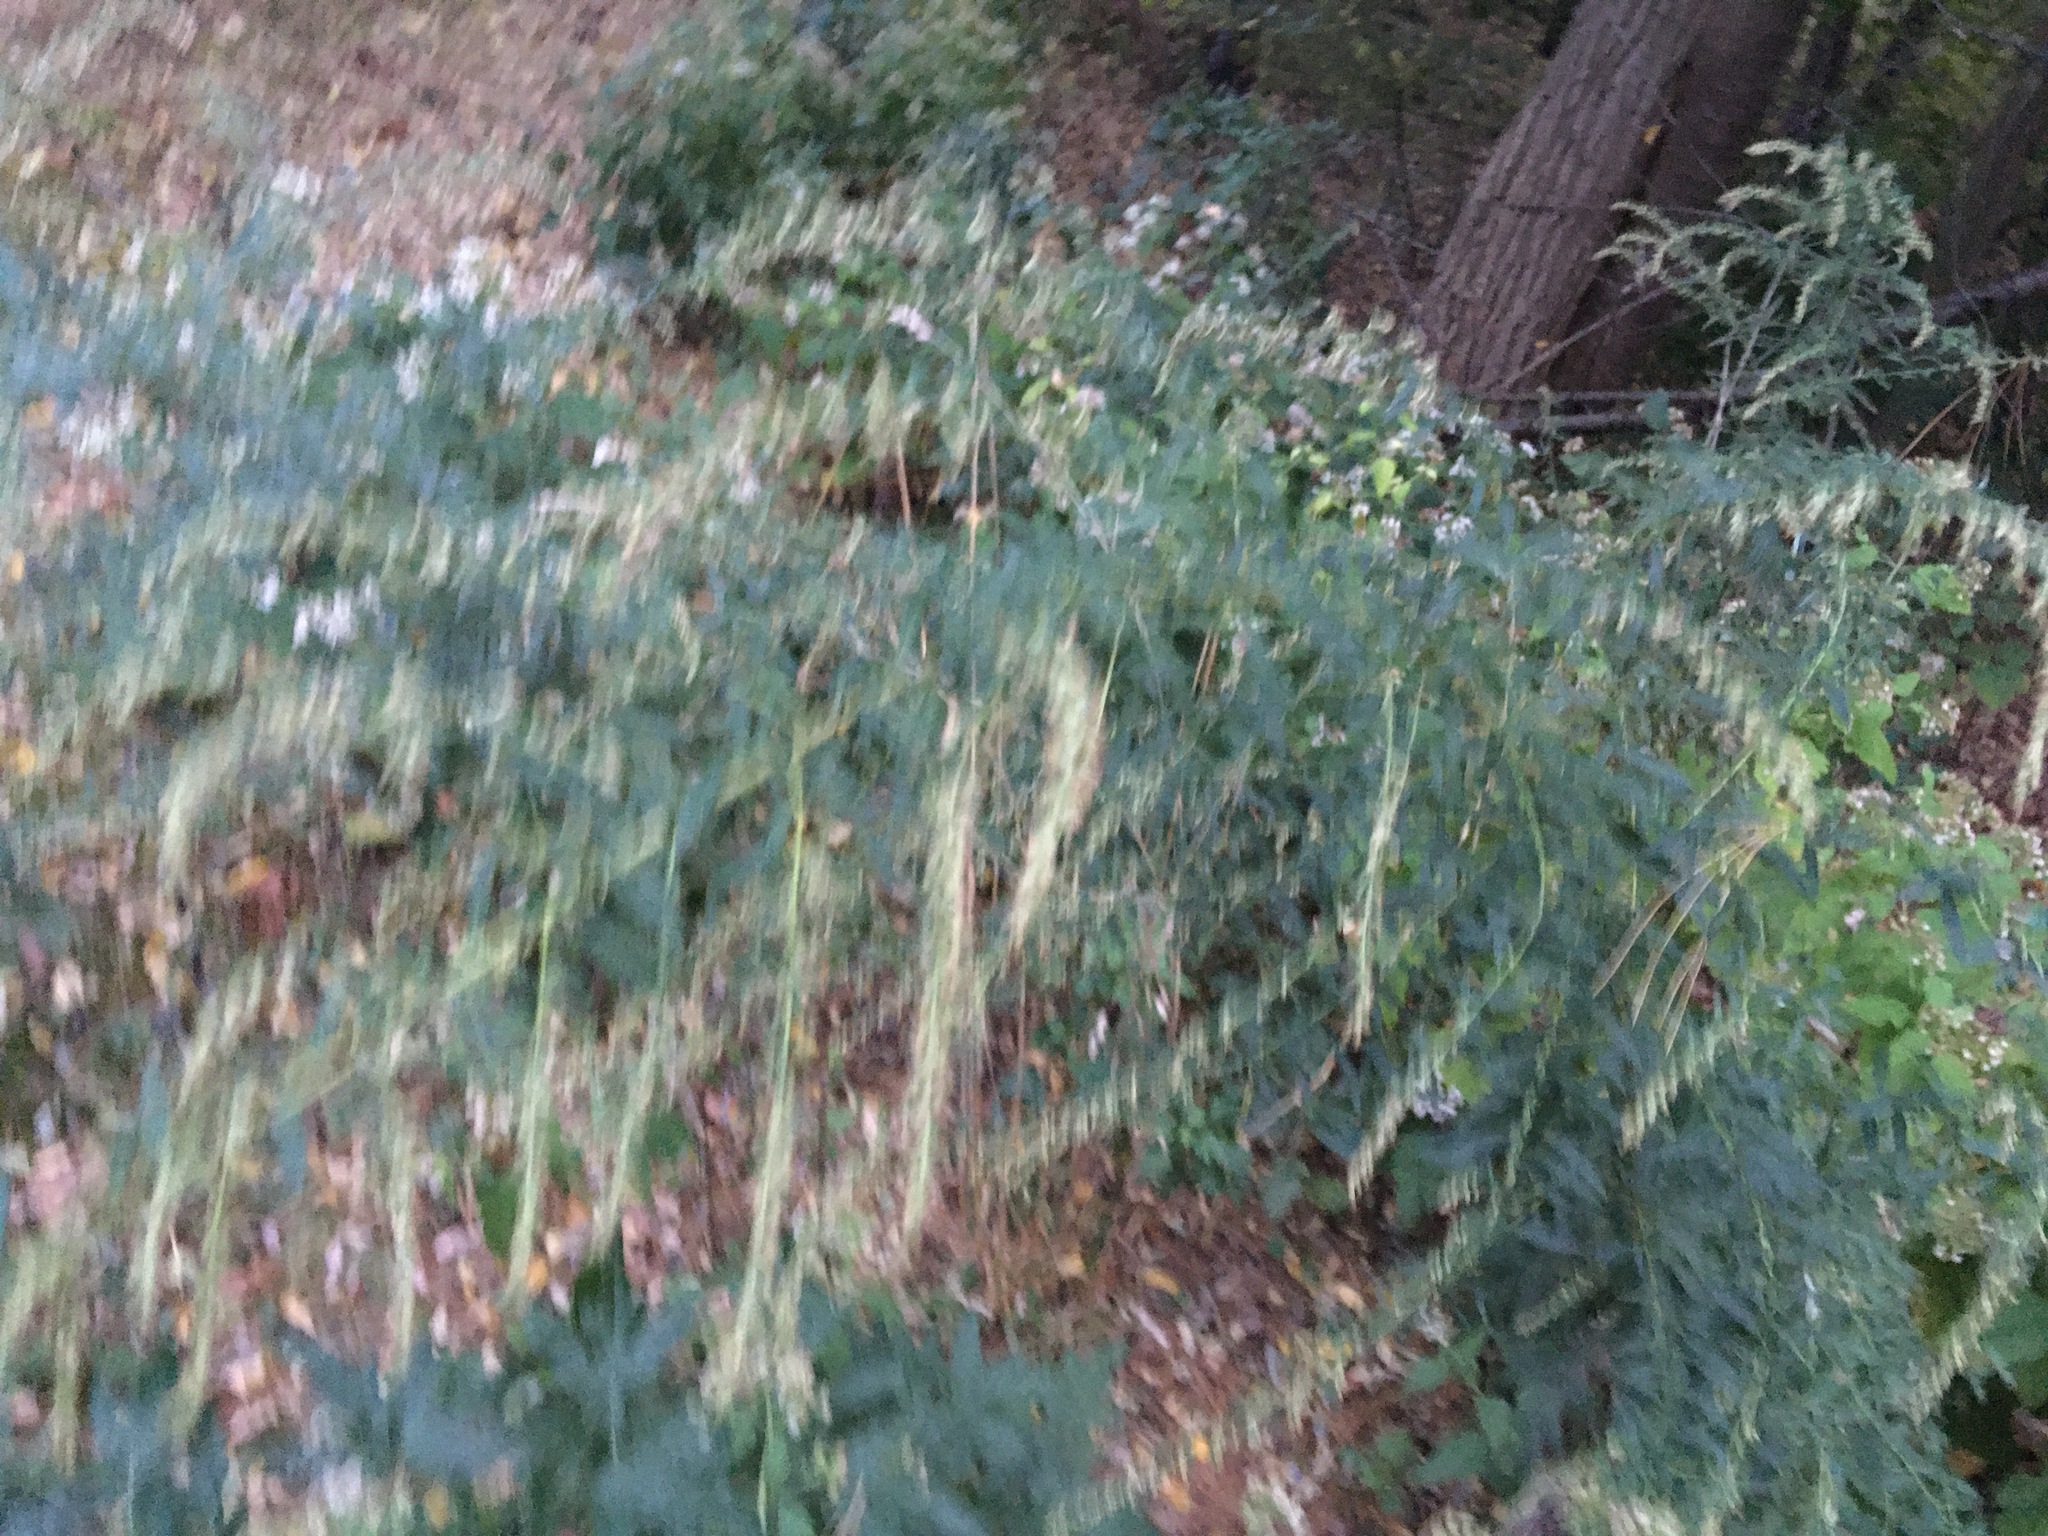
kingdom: Plantae
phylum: Tracheophyta
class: Magnoliopsida
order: Asterales
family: Asteraceae
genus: Artemisia
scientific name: Artemisia vulgaris
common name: Mugwort
